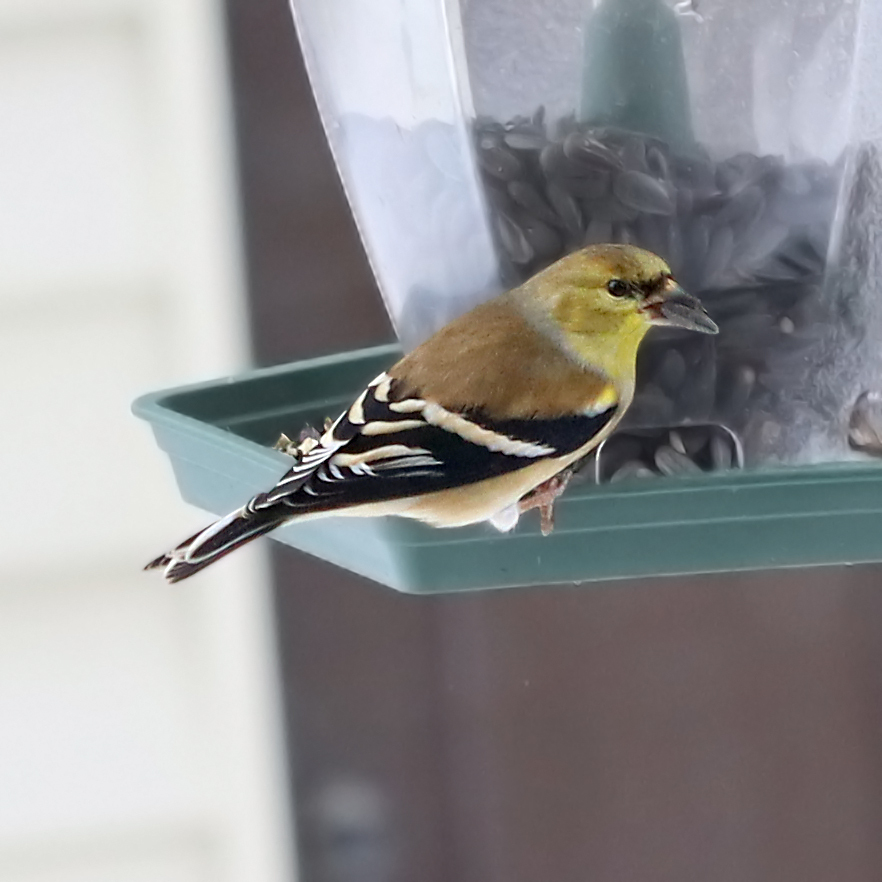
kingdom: Animalia
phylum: Chordata
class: Aves
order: Passeriformes
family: Fringillidae
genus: Spinus
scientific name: Spinus tristis
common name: American goldfinch
